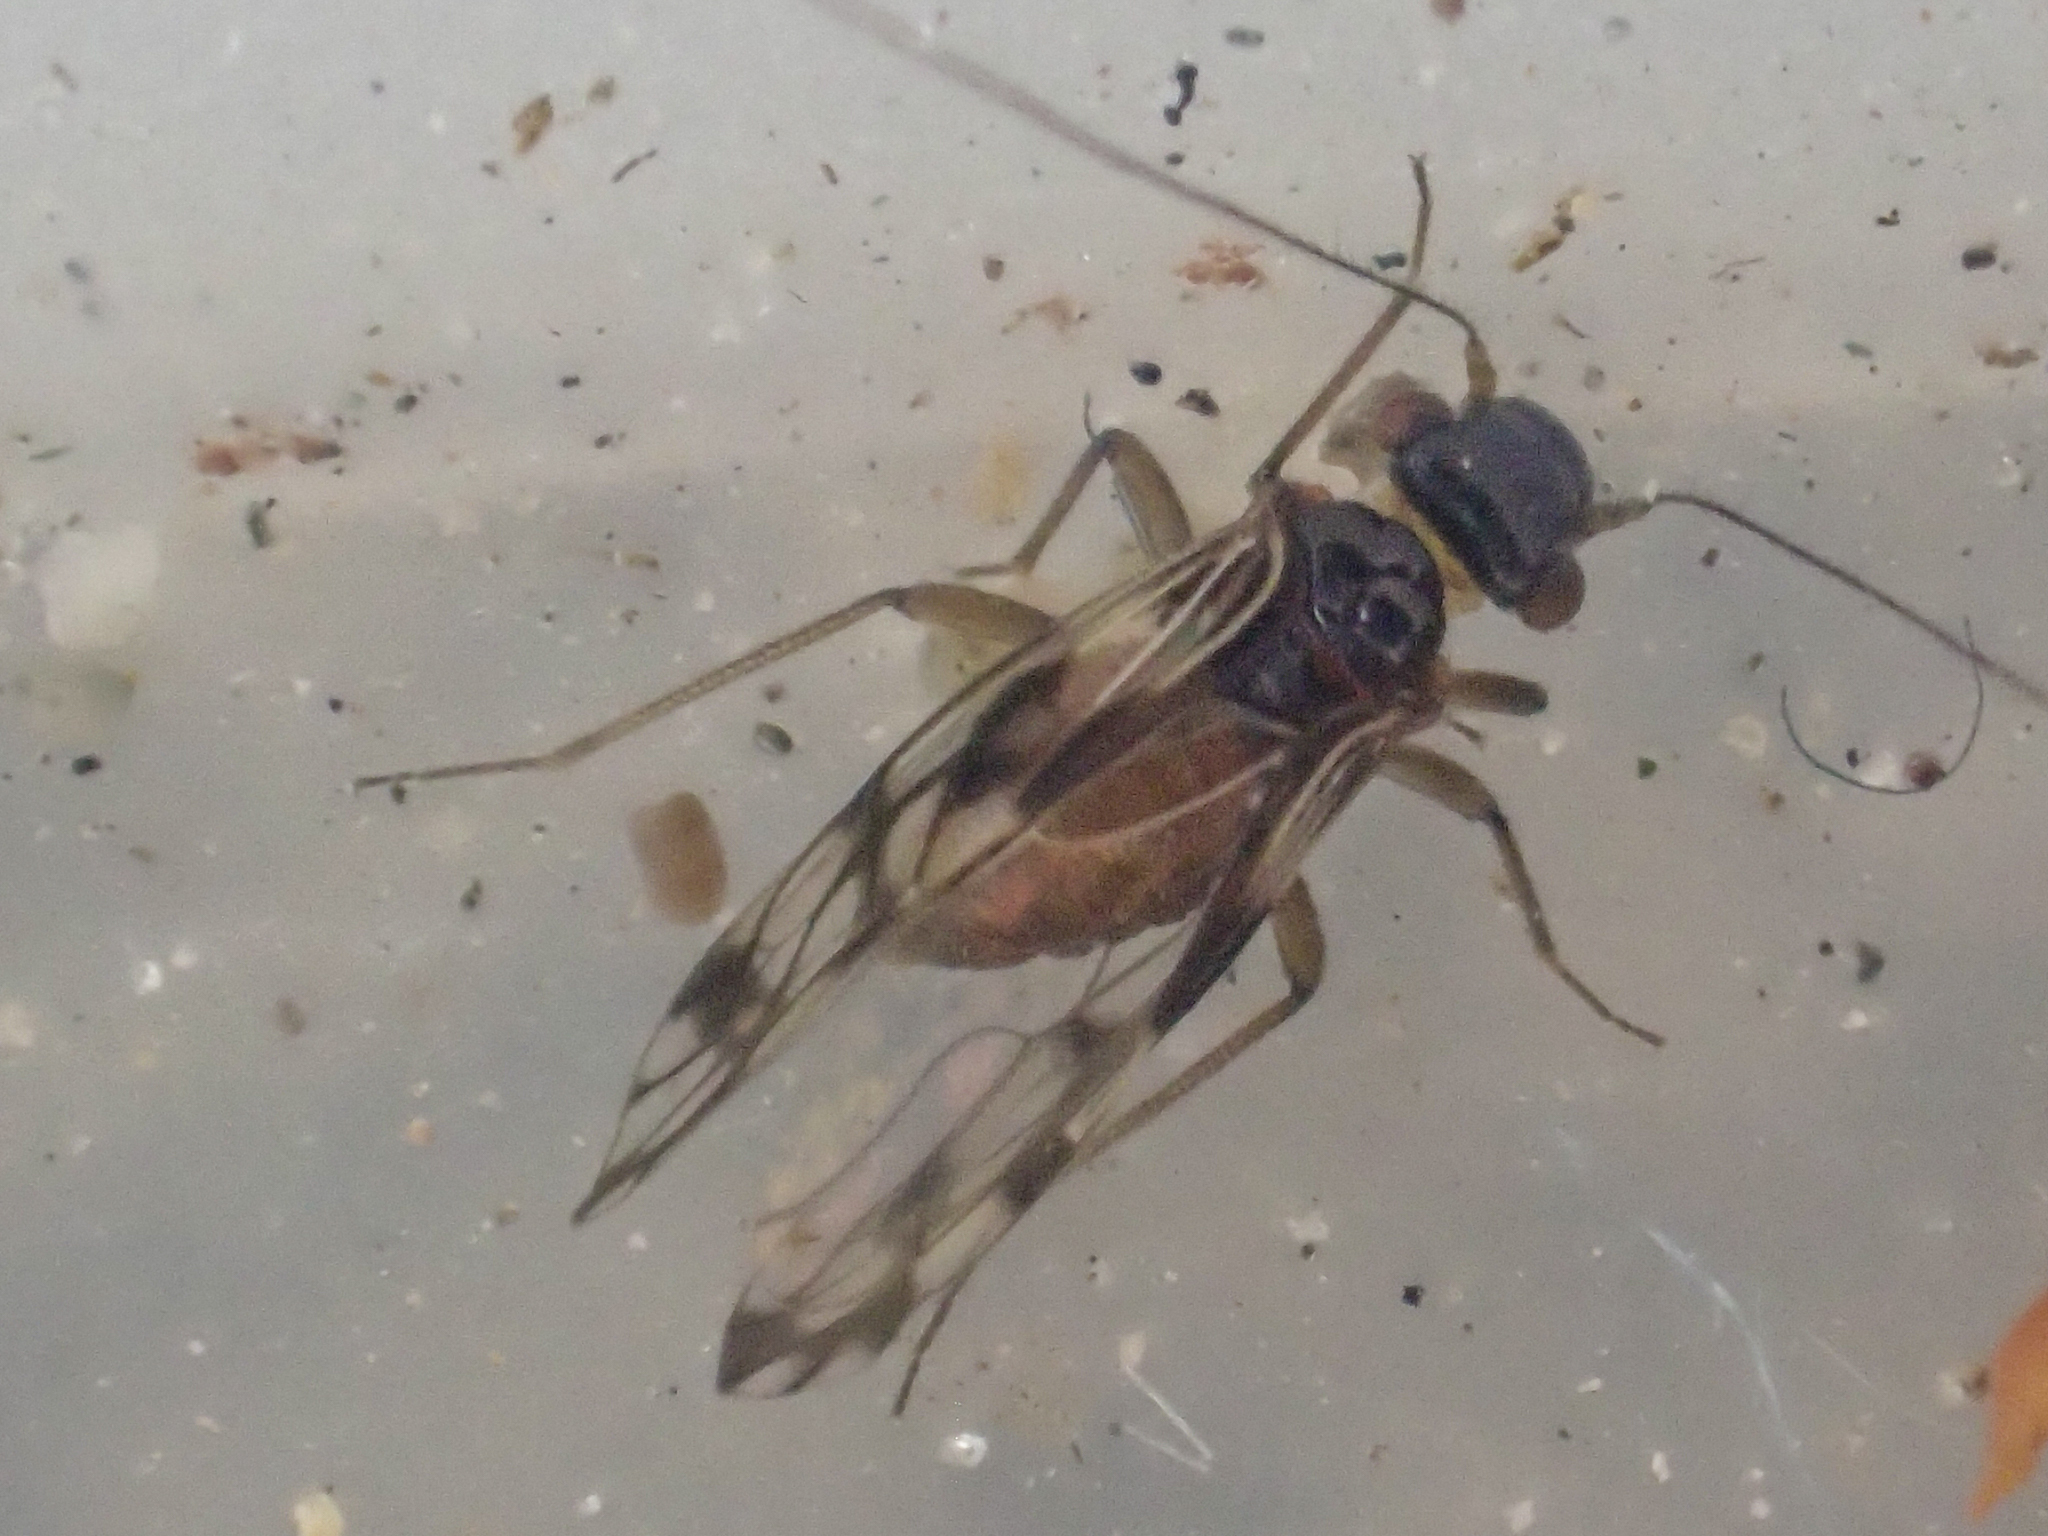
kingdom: Animalia
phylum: Arthropoda
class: Insecta
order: Psocodea
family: Elipsocidae
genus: Propsocus
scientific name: Propsocus pulchripennis
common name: Bark louse
